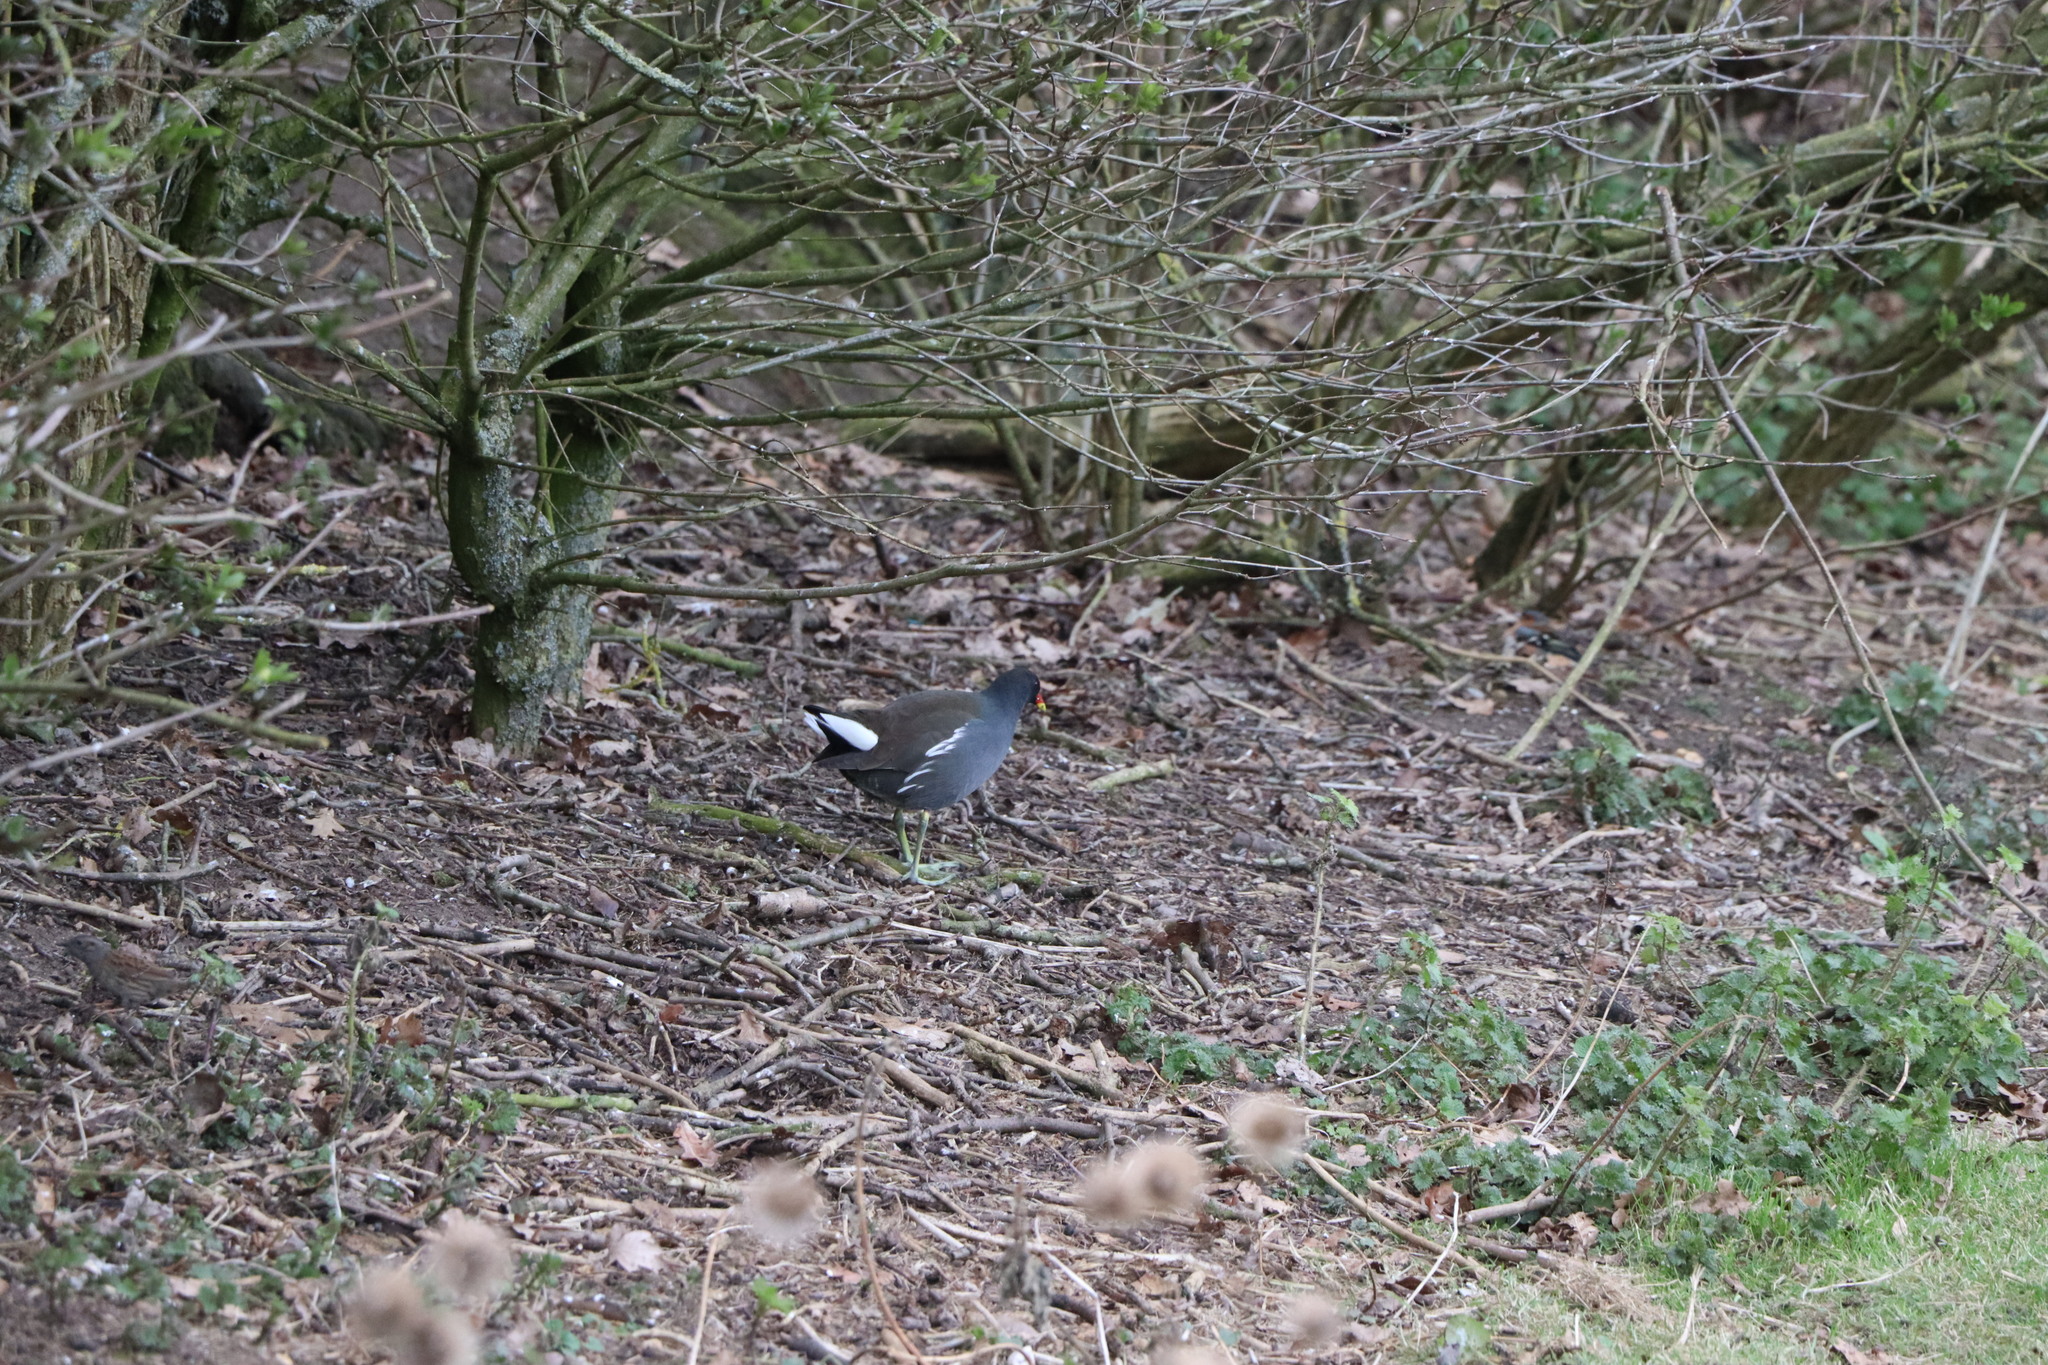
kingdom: Animalia
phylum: Chordata
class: Aves
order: Gruiformes
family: Rallidae
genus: Gallinula
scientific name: Gallinula chloropus
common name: Common moorhen
